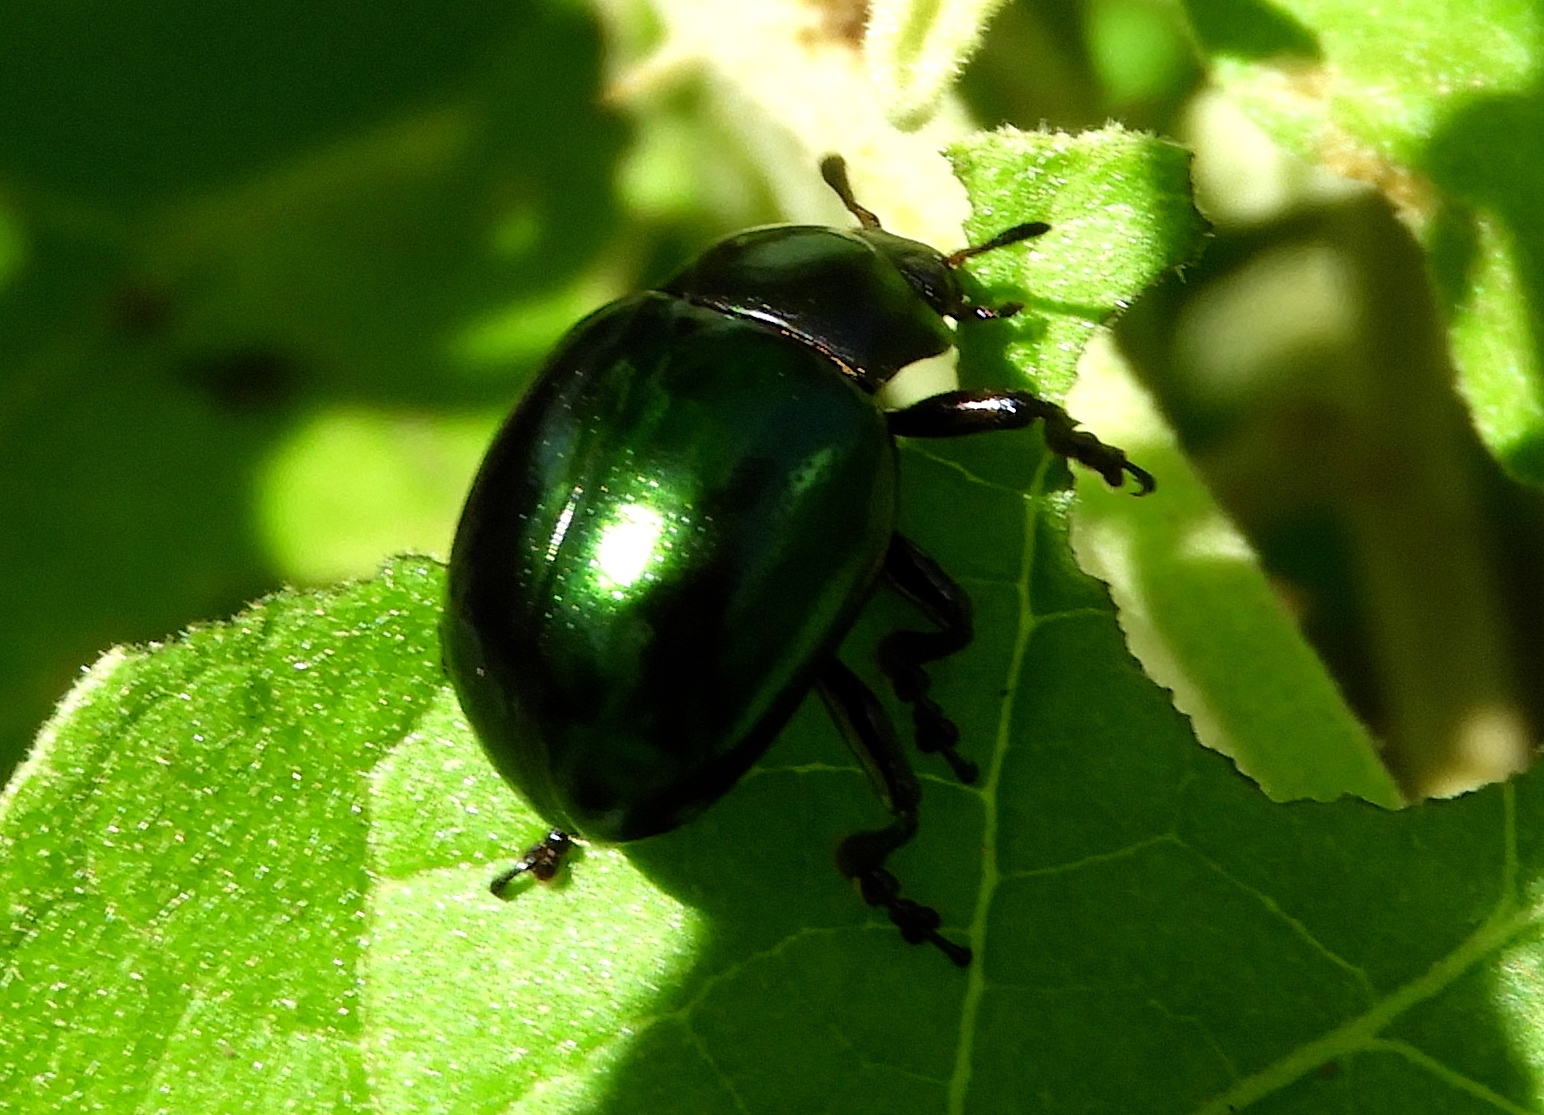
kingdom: Animalia
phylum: Arthropoda
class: Insecta
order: Coleoptera
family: Chrysomelidae
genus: Leptinotarsa
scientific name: Leptinotarsa haldemani
